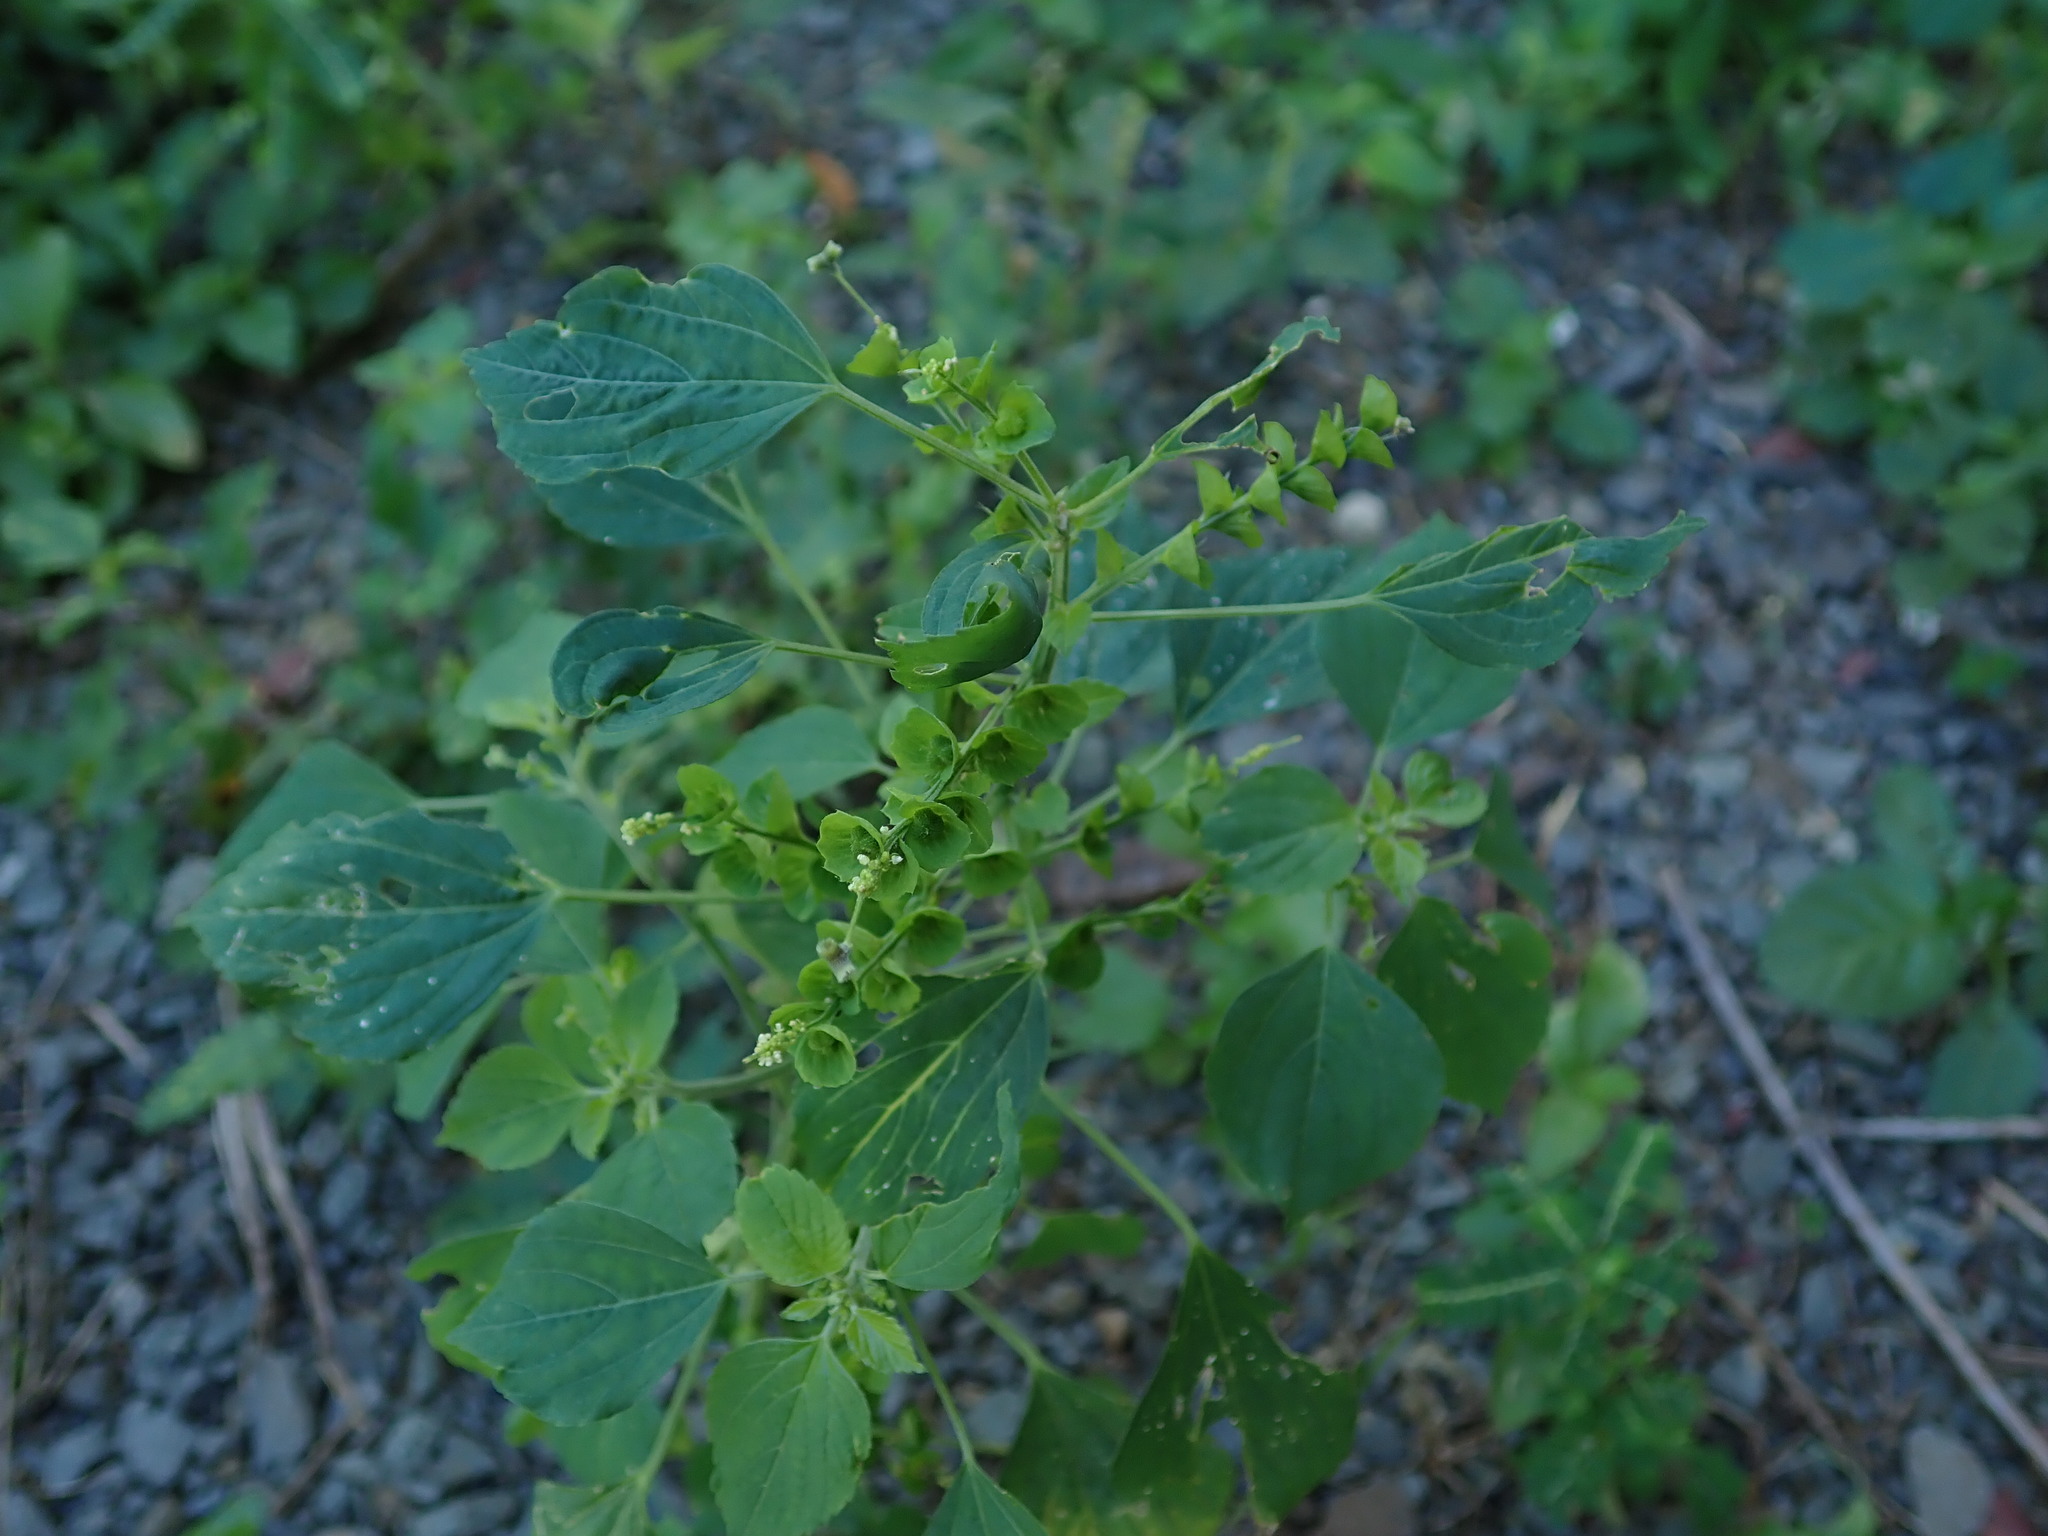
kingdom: Plantae
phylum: Tracheophyta
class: Magnoliopsida
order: Malpighiales
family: Euphorbiaceae
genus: Acalypha
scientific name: Acalypha indica
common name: Indian acalypha
